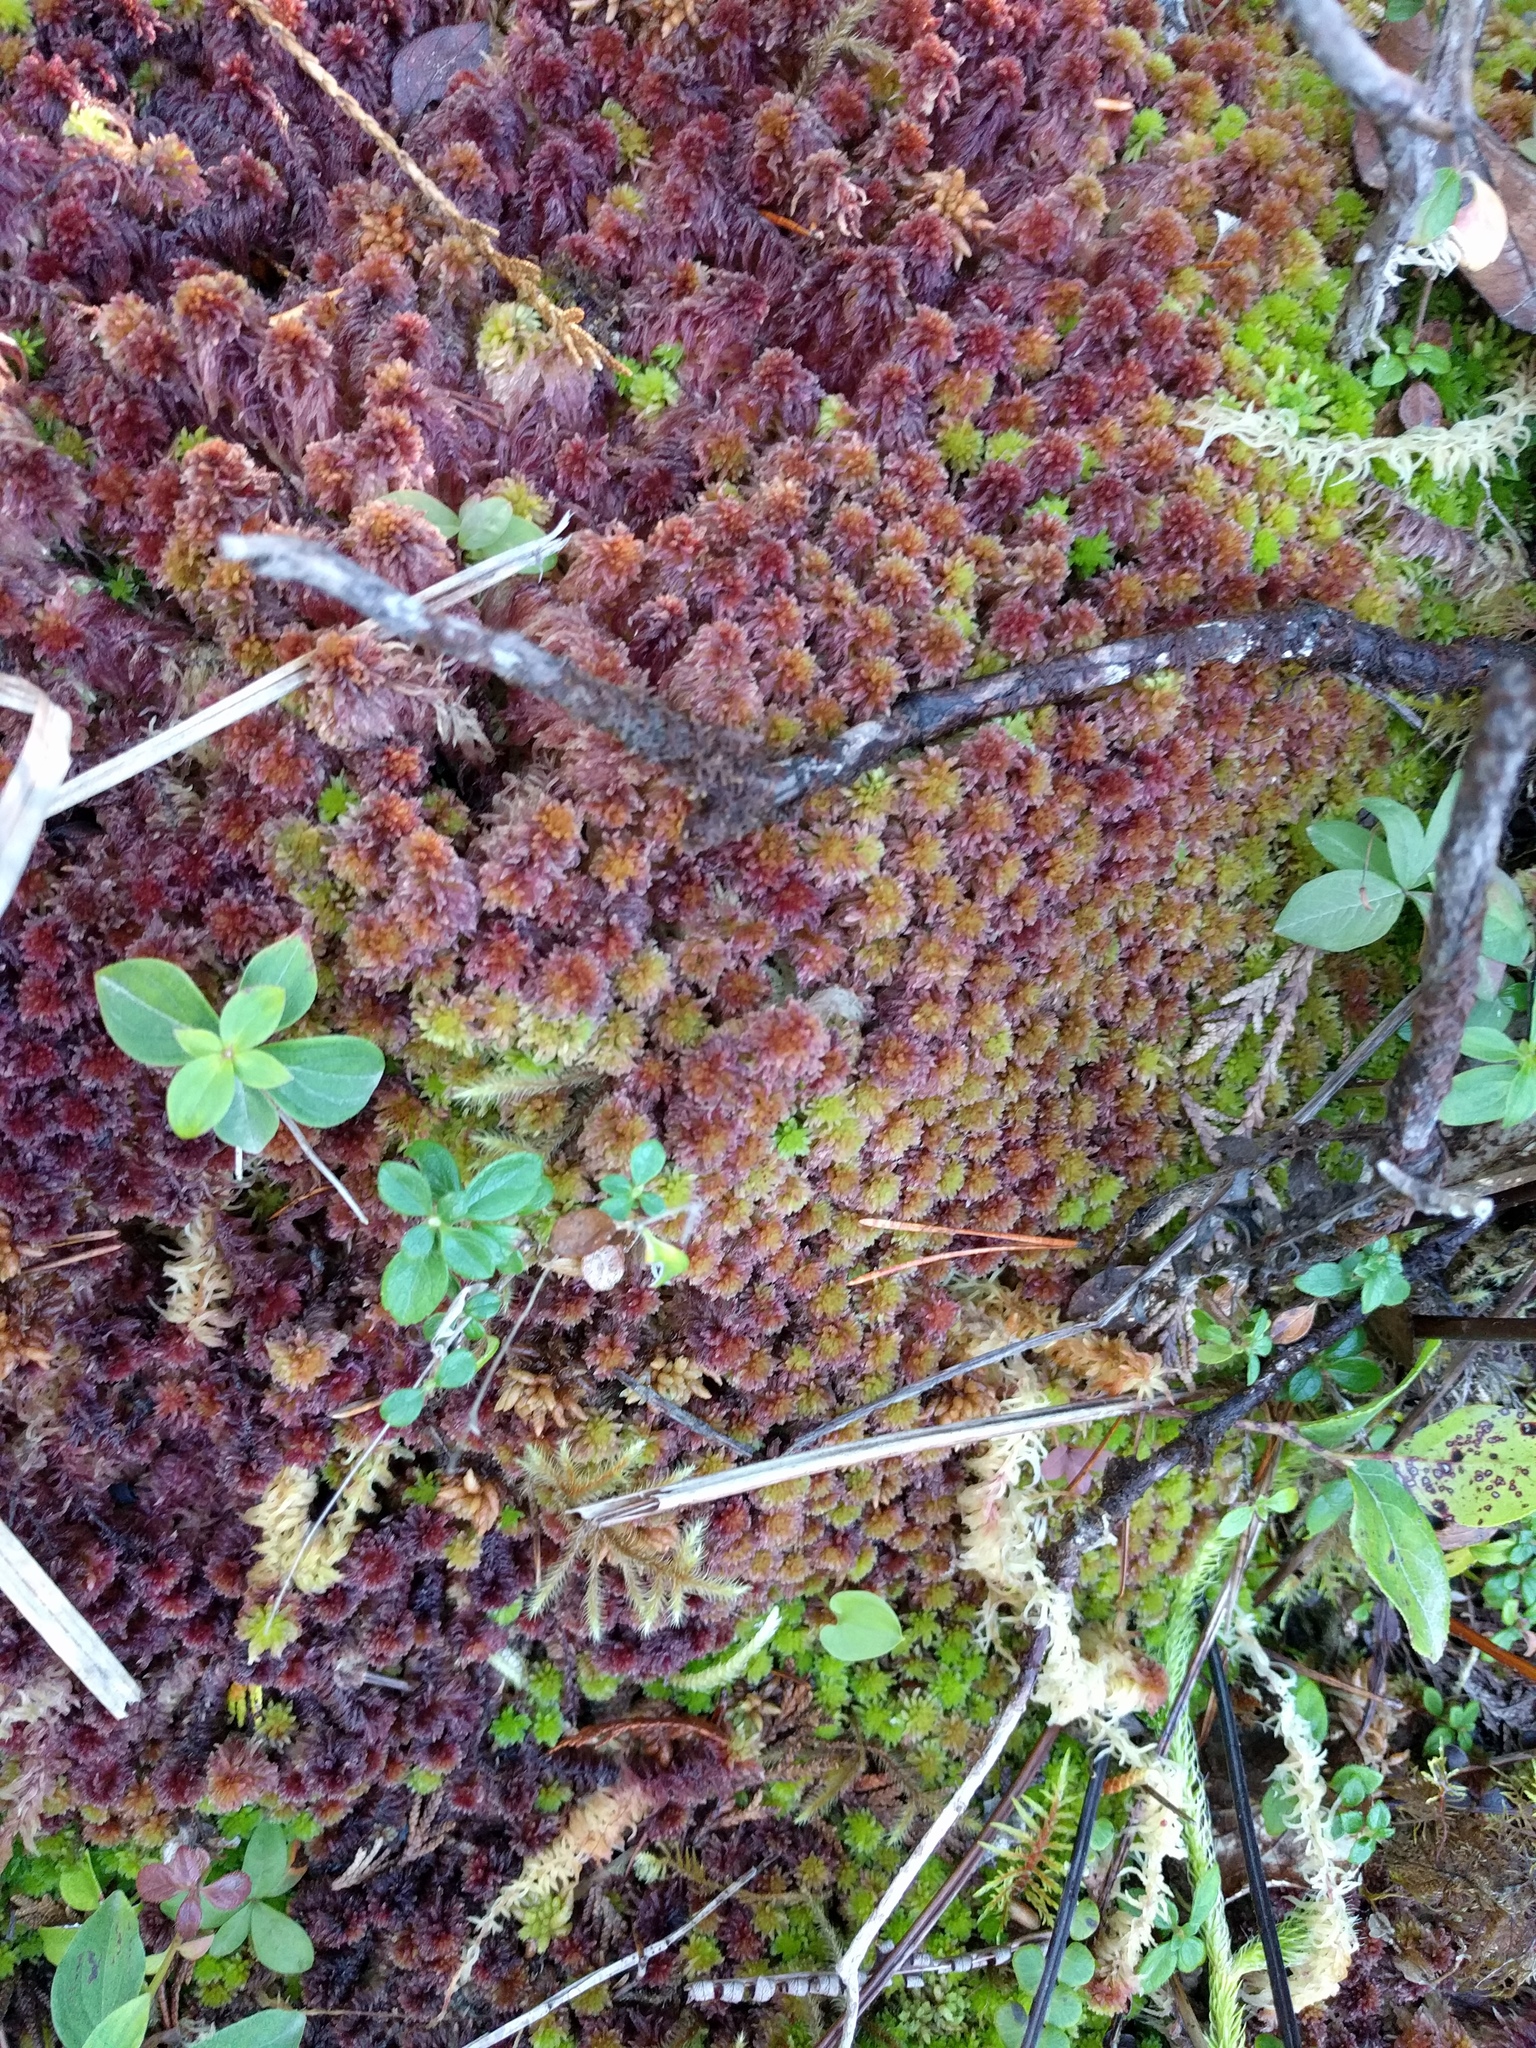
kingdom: Plantae
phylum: Bryophyta
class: Sphagnopsida
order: Sphagnales
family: Sphagnaceae
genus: Sphagnum
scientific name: Sphagnum capillifolium
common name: Small red peat moss
